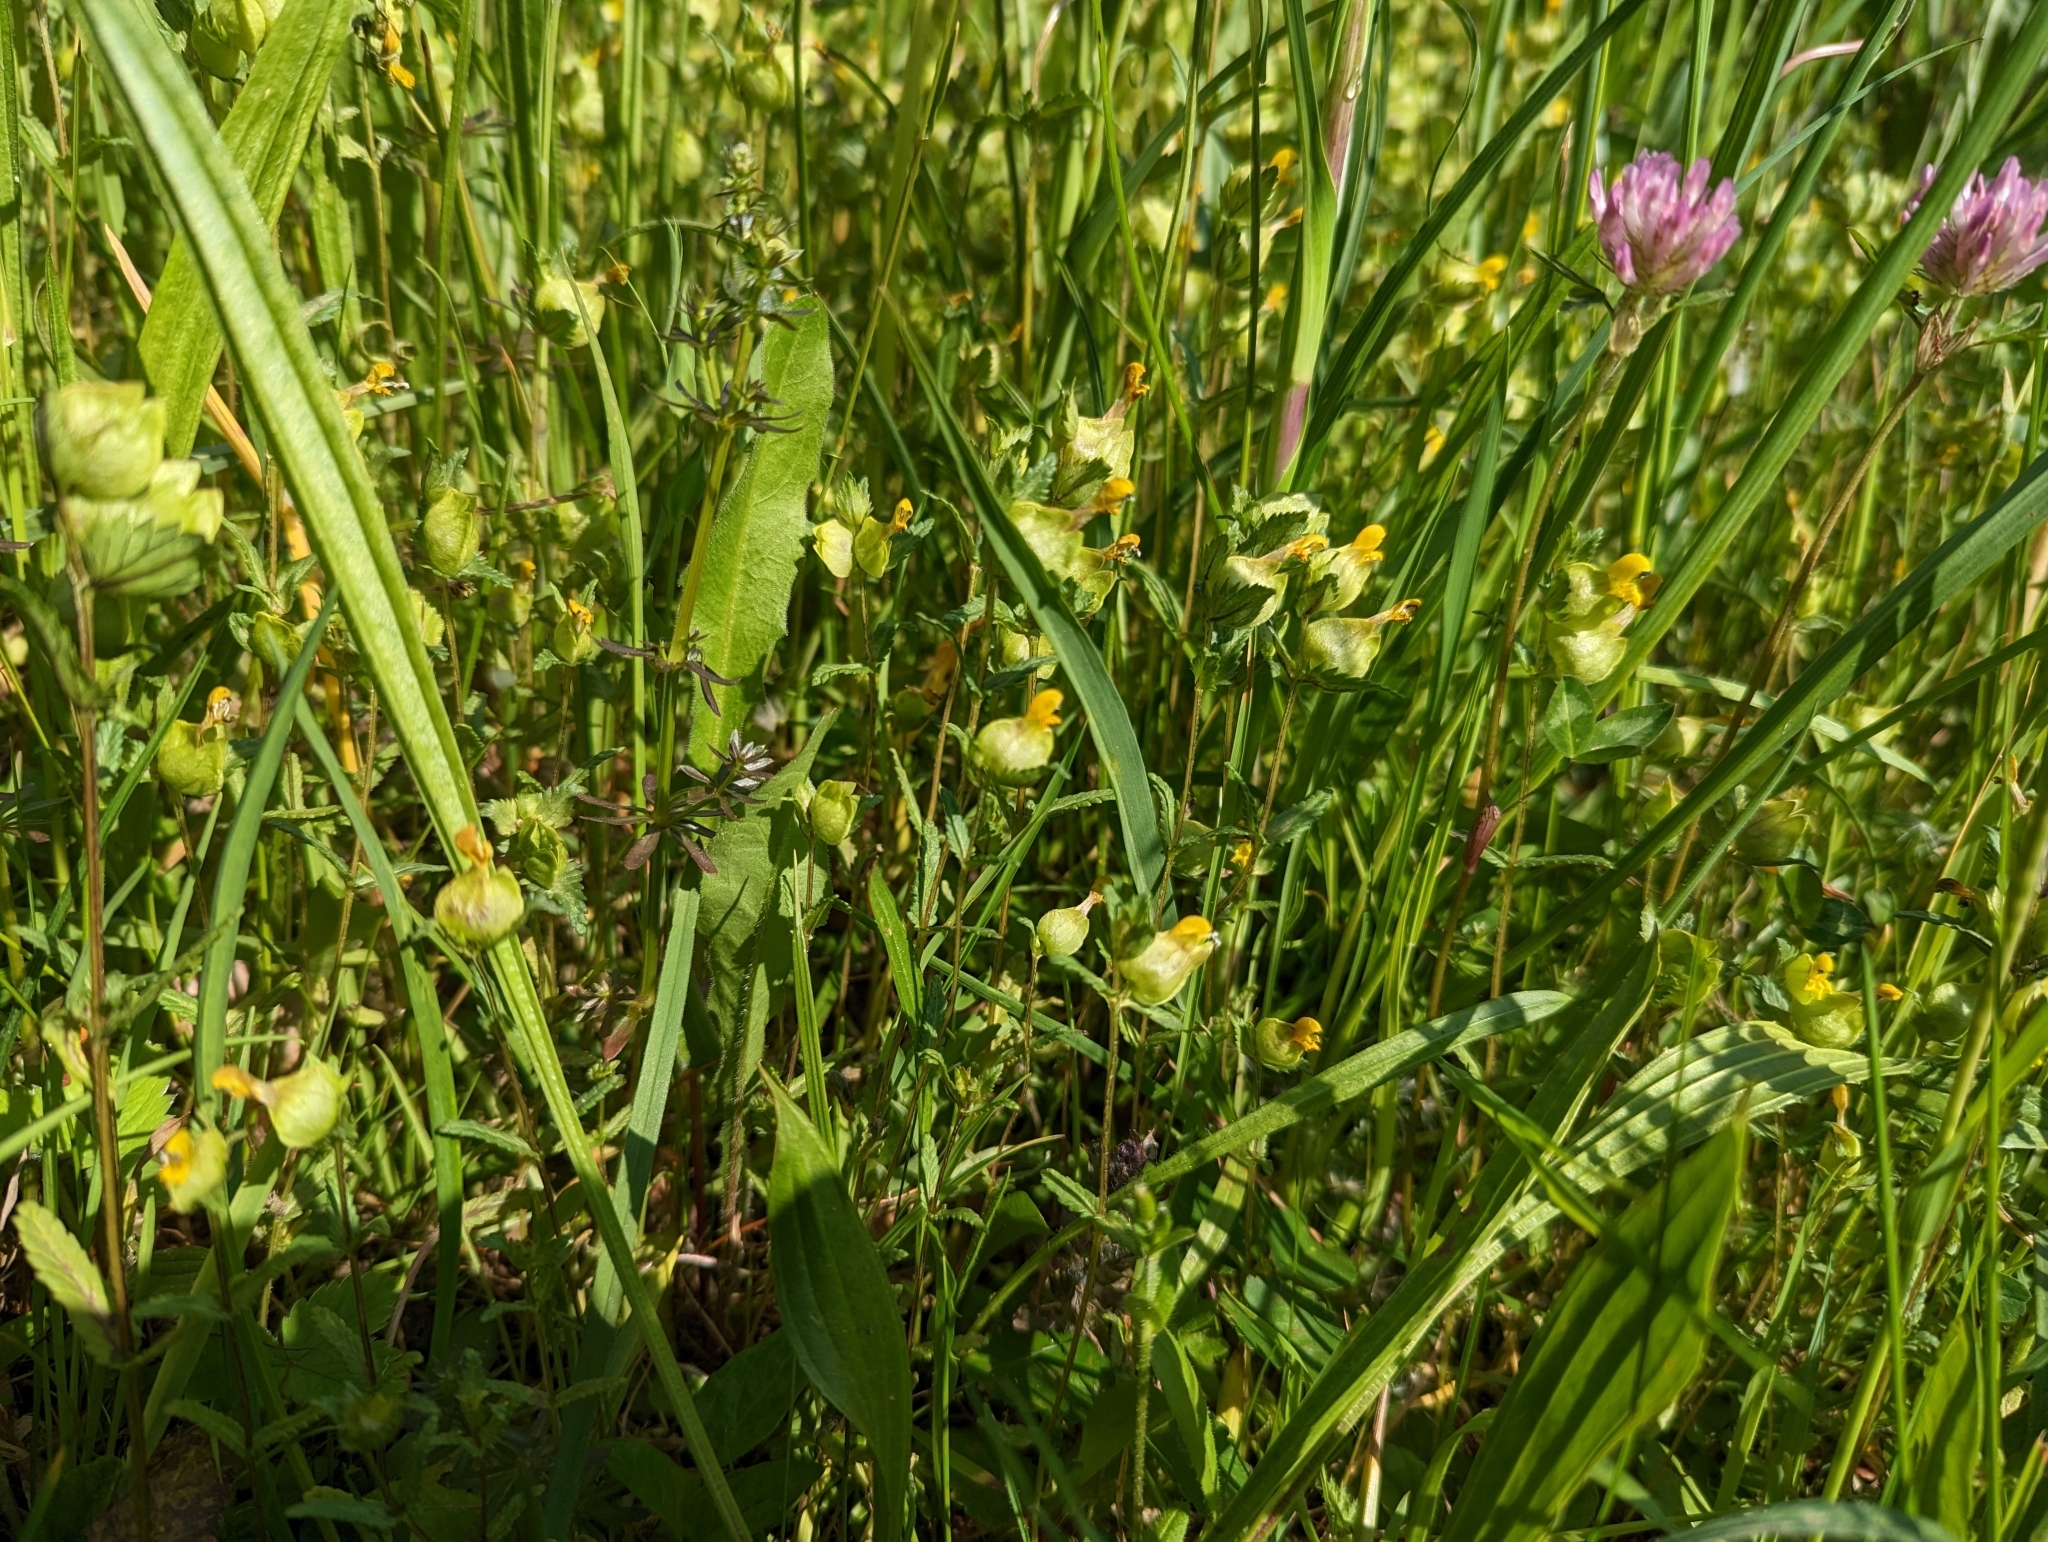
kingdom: Plantae
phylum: Tracheophyta
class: Magnoliopsida
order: Lamiales
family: Orobanchaceae
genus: Rhinanthus
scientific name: Rhinanthus minor
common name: Yellow-rattle
